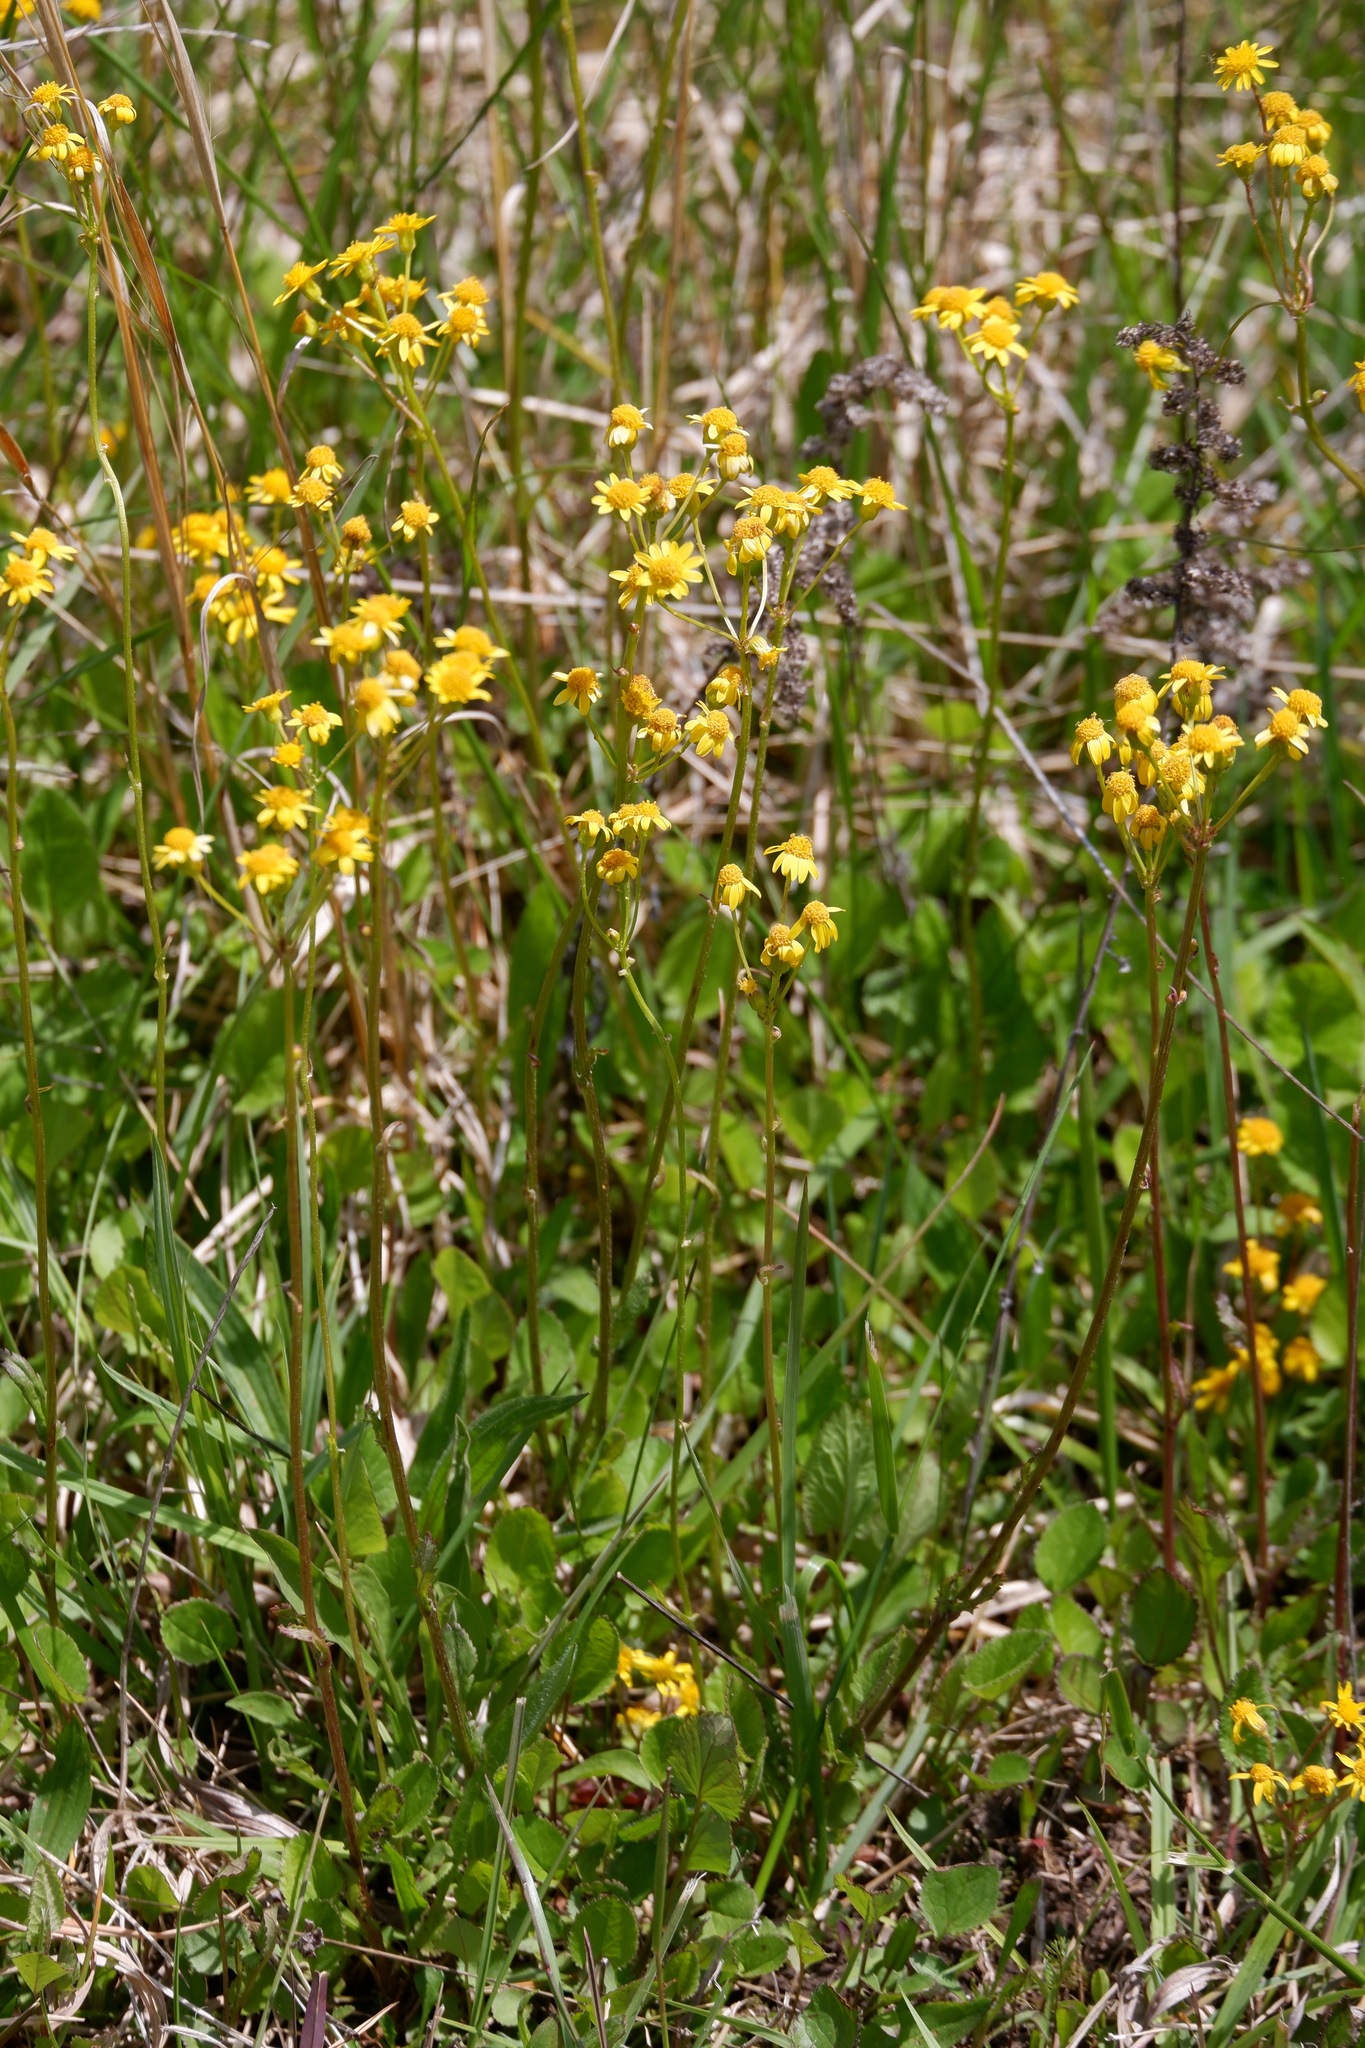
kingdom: Plantae
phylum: Tracheophyta
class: Magnoliopsida
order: Asterales
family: Asteraceae
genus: Packera
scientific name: Packera aurea
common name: Golden groundsel
